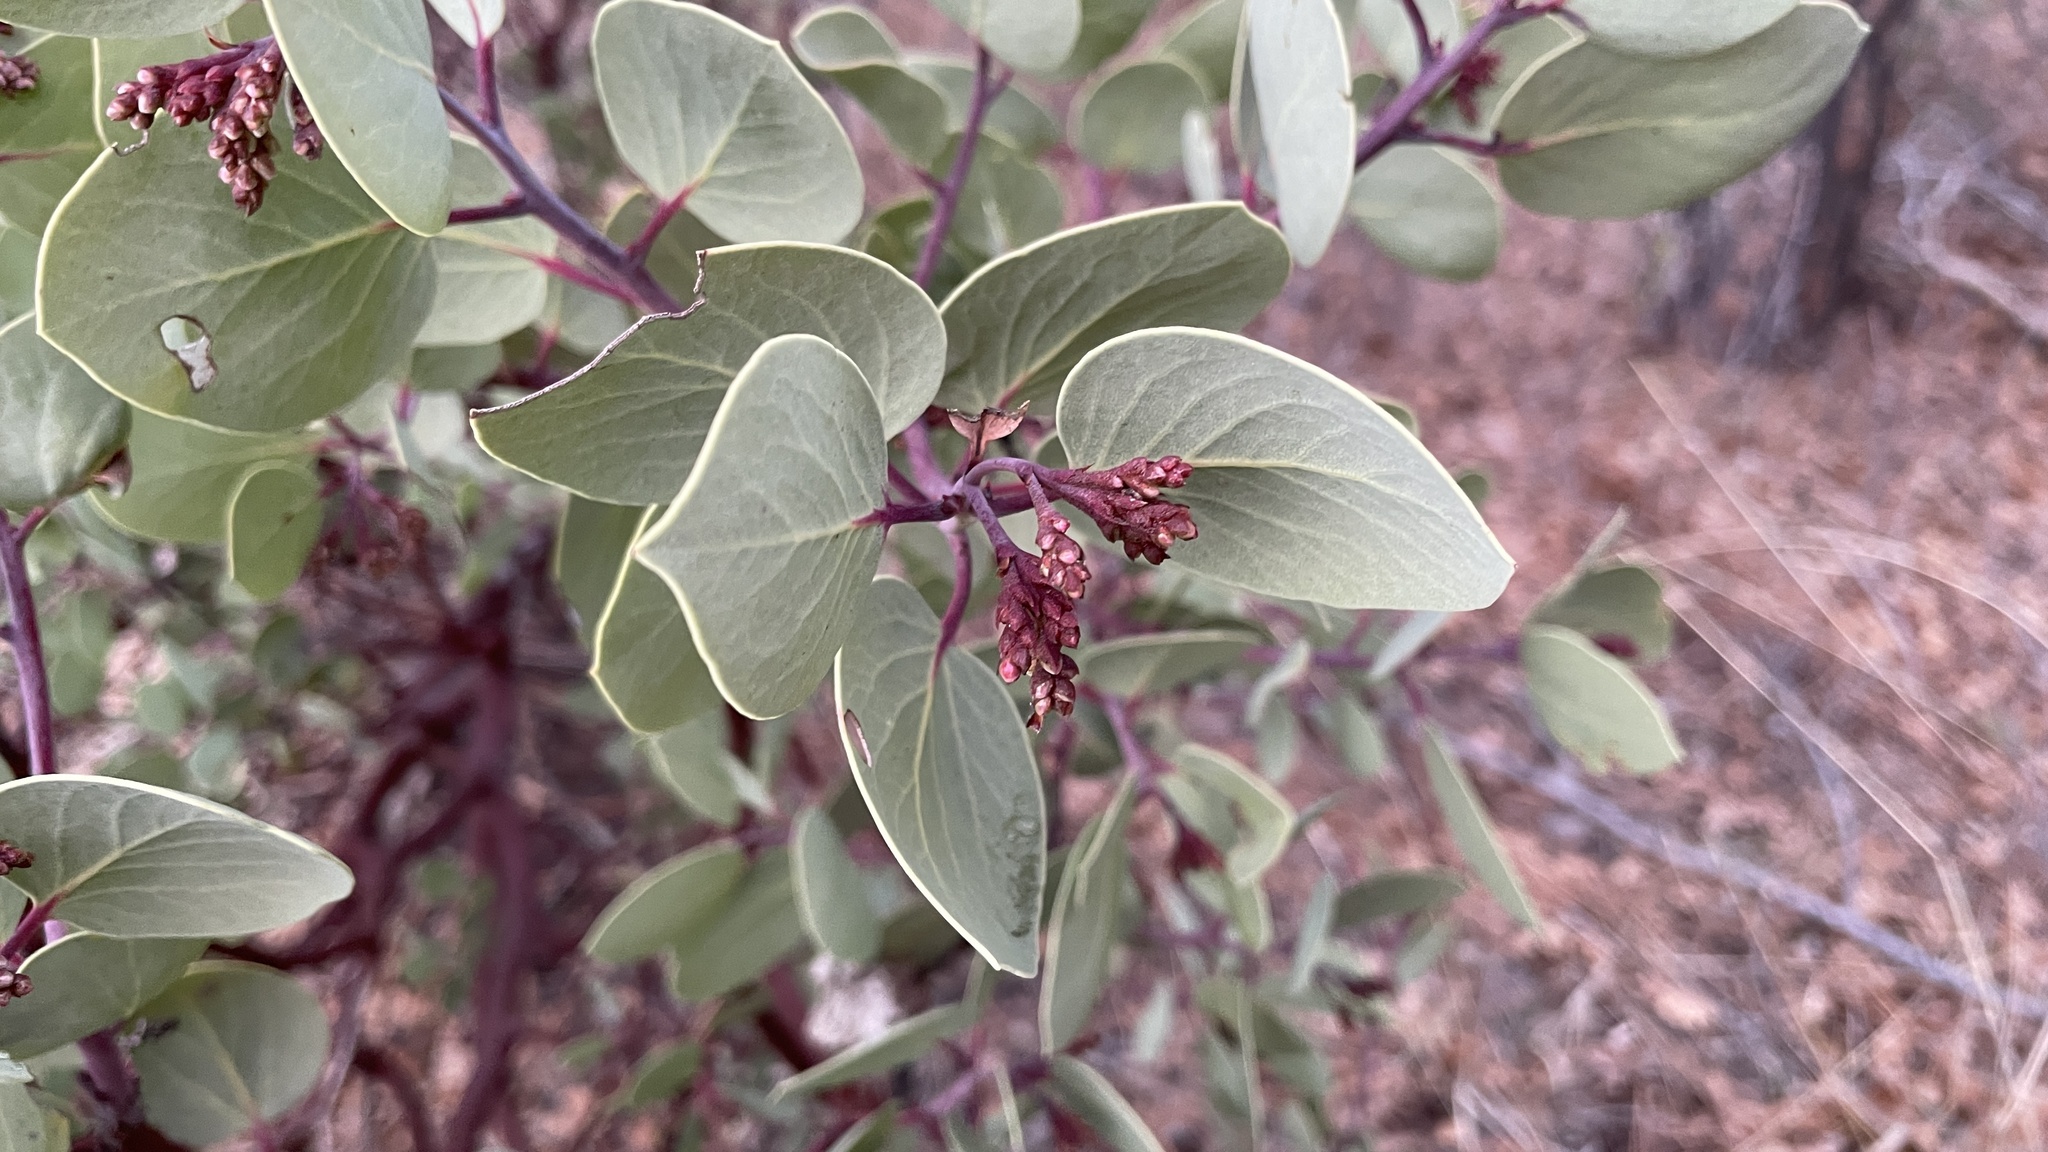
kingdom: Plantae
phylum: Tracheophyta
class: Magnoliopsida
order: Ericales
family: Ericaceae
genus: Arctostaphylos
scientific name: Arctostaphylos viscida
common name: White-leaf manzanita
